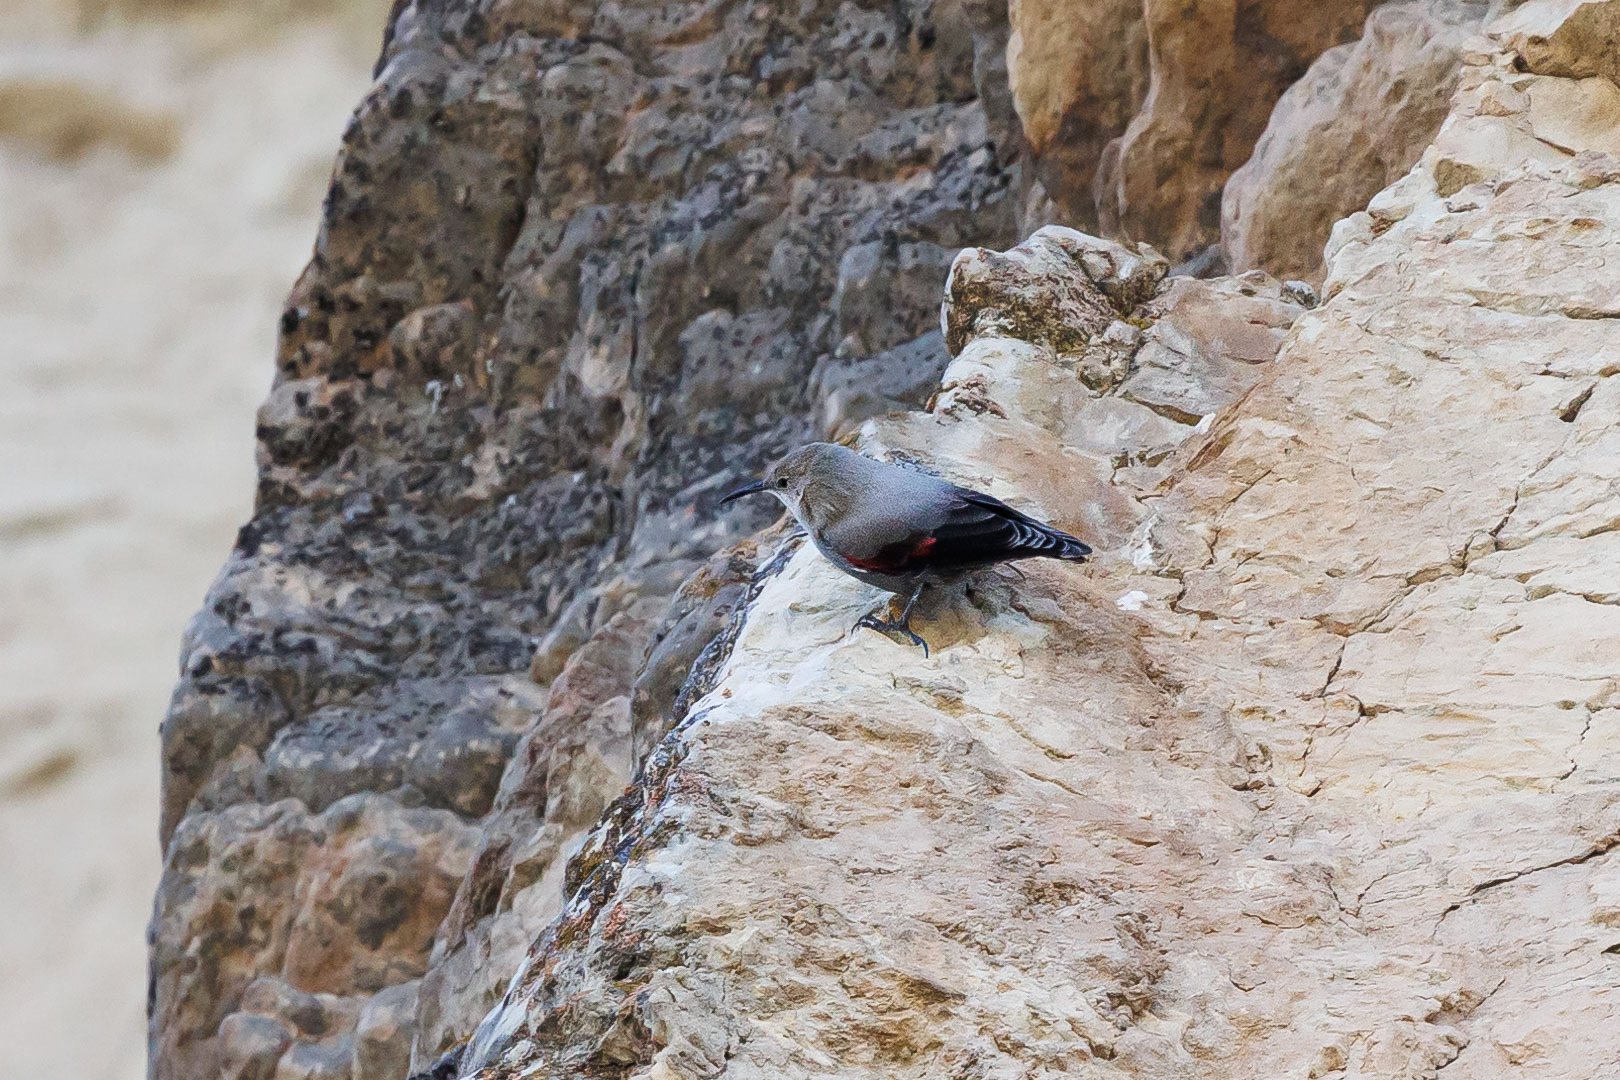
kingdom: Animalia
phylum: Chordata
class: Aves
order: Passeriformes
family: Tichodromidae
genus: Tichodroma
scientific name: Tichodroma muraria
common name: Wallcreeper
